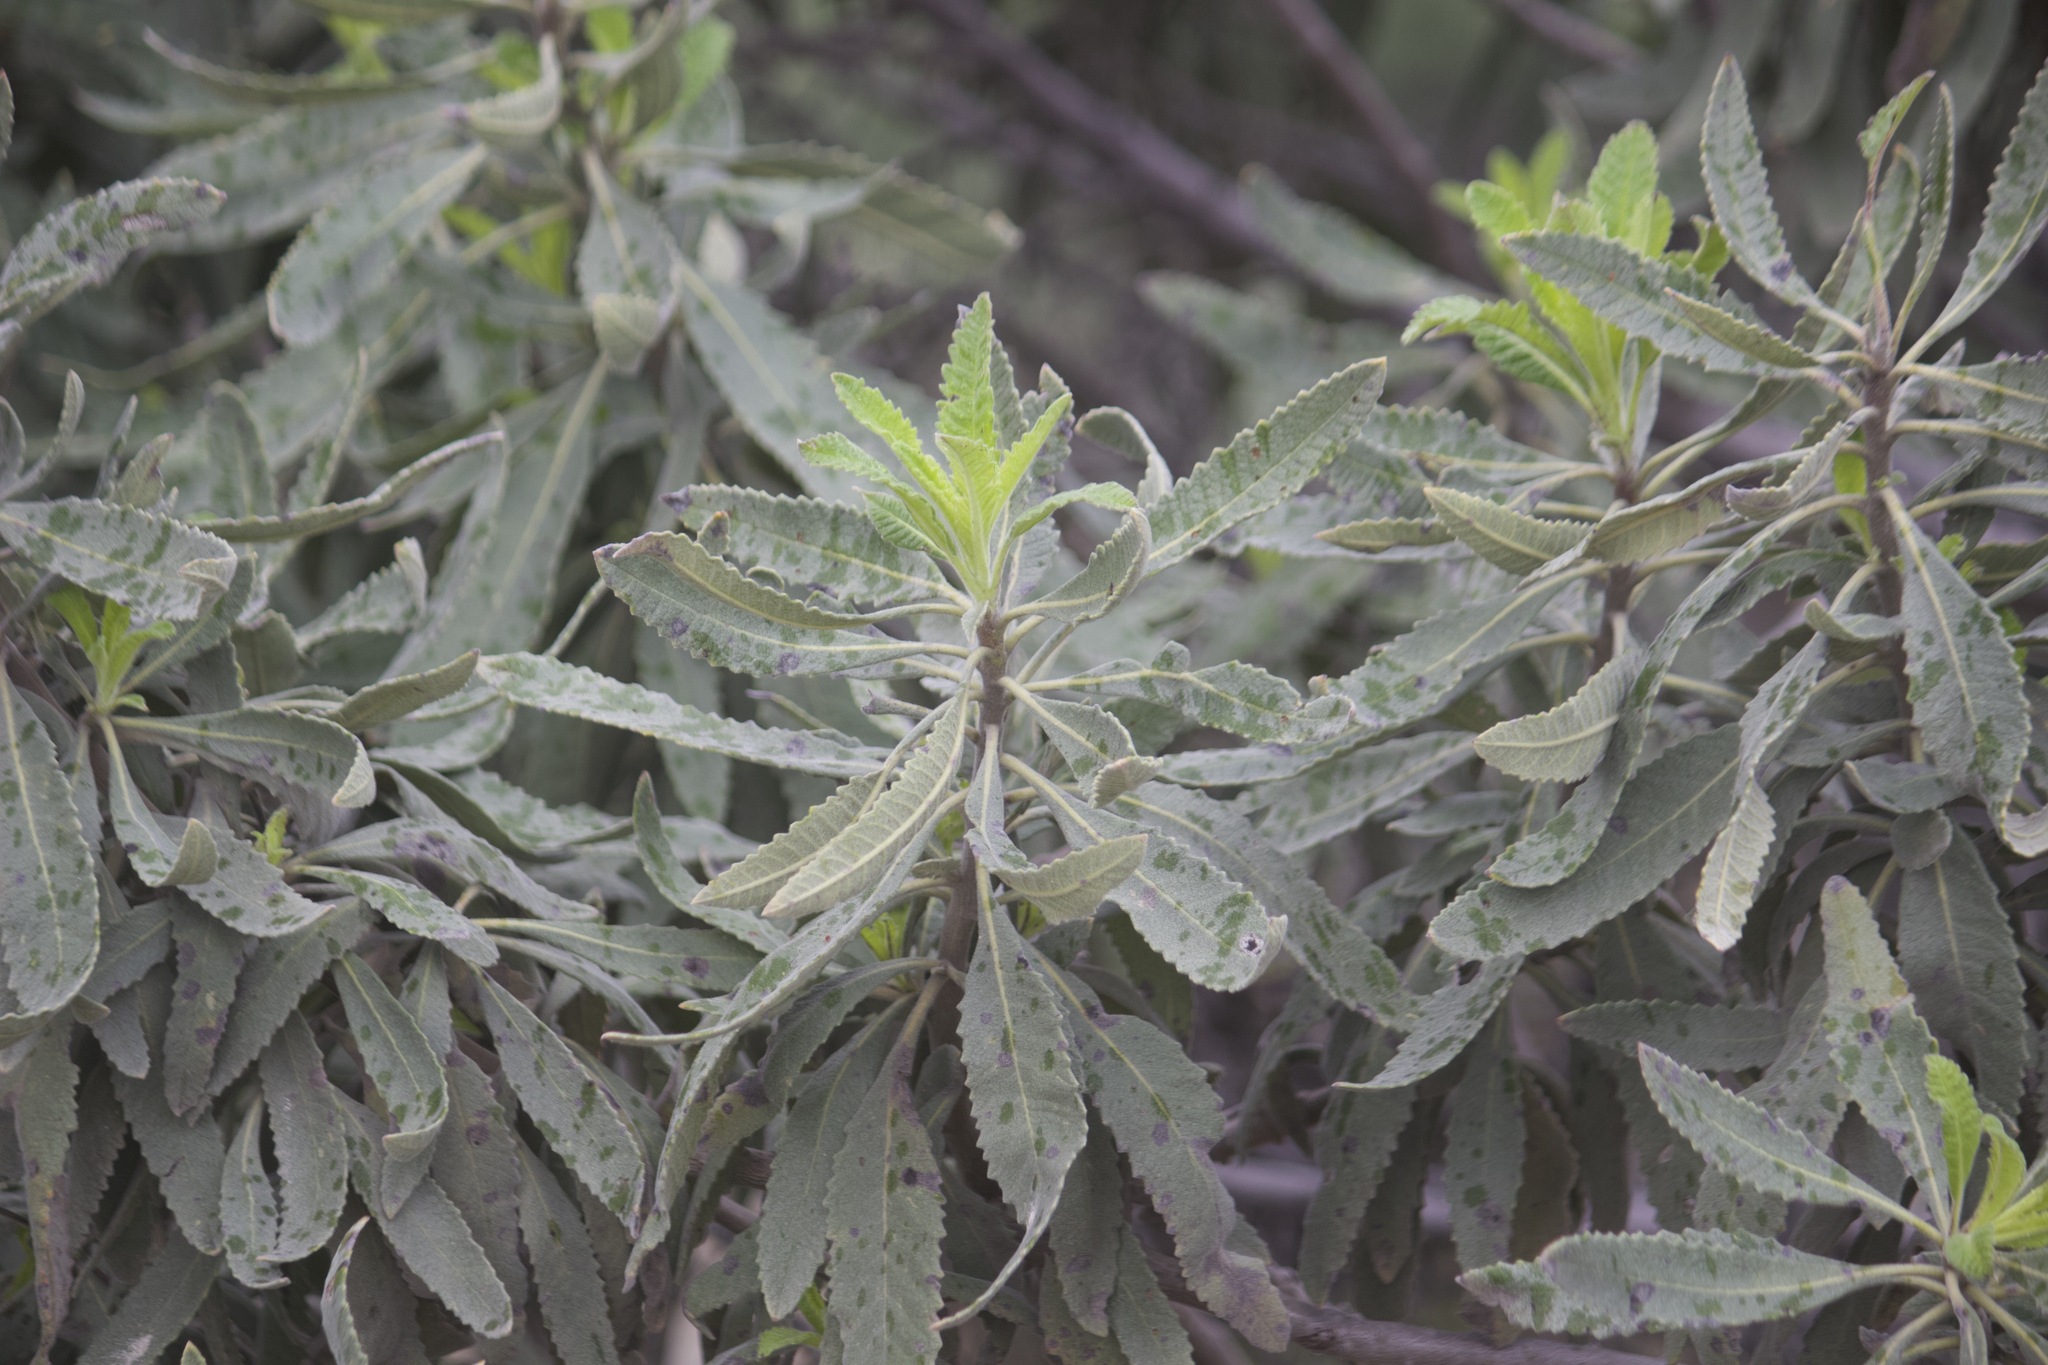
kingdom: Plantae
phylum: Tracheophyta
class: Magnoliopsida
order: Boraginales
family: Namaceae
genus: Eriodictyon
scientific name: Eriodictyon crassifolium
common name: Thick-leaf yerba-santa
